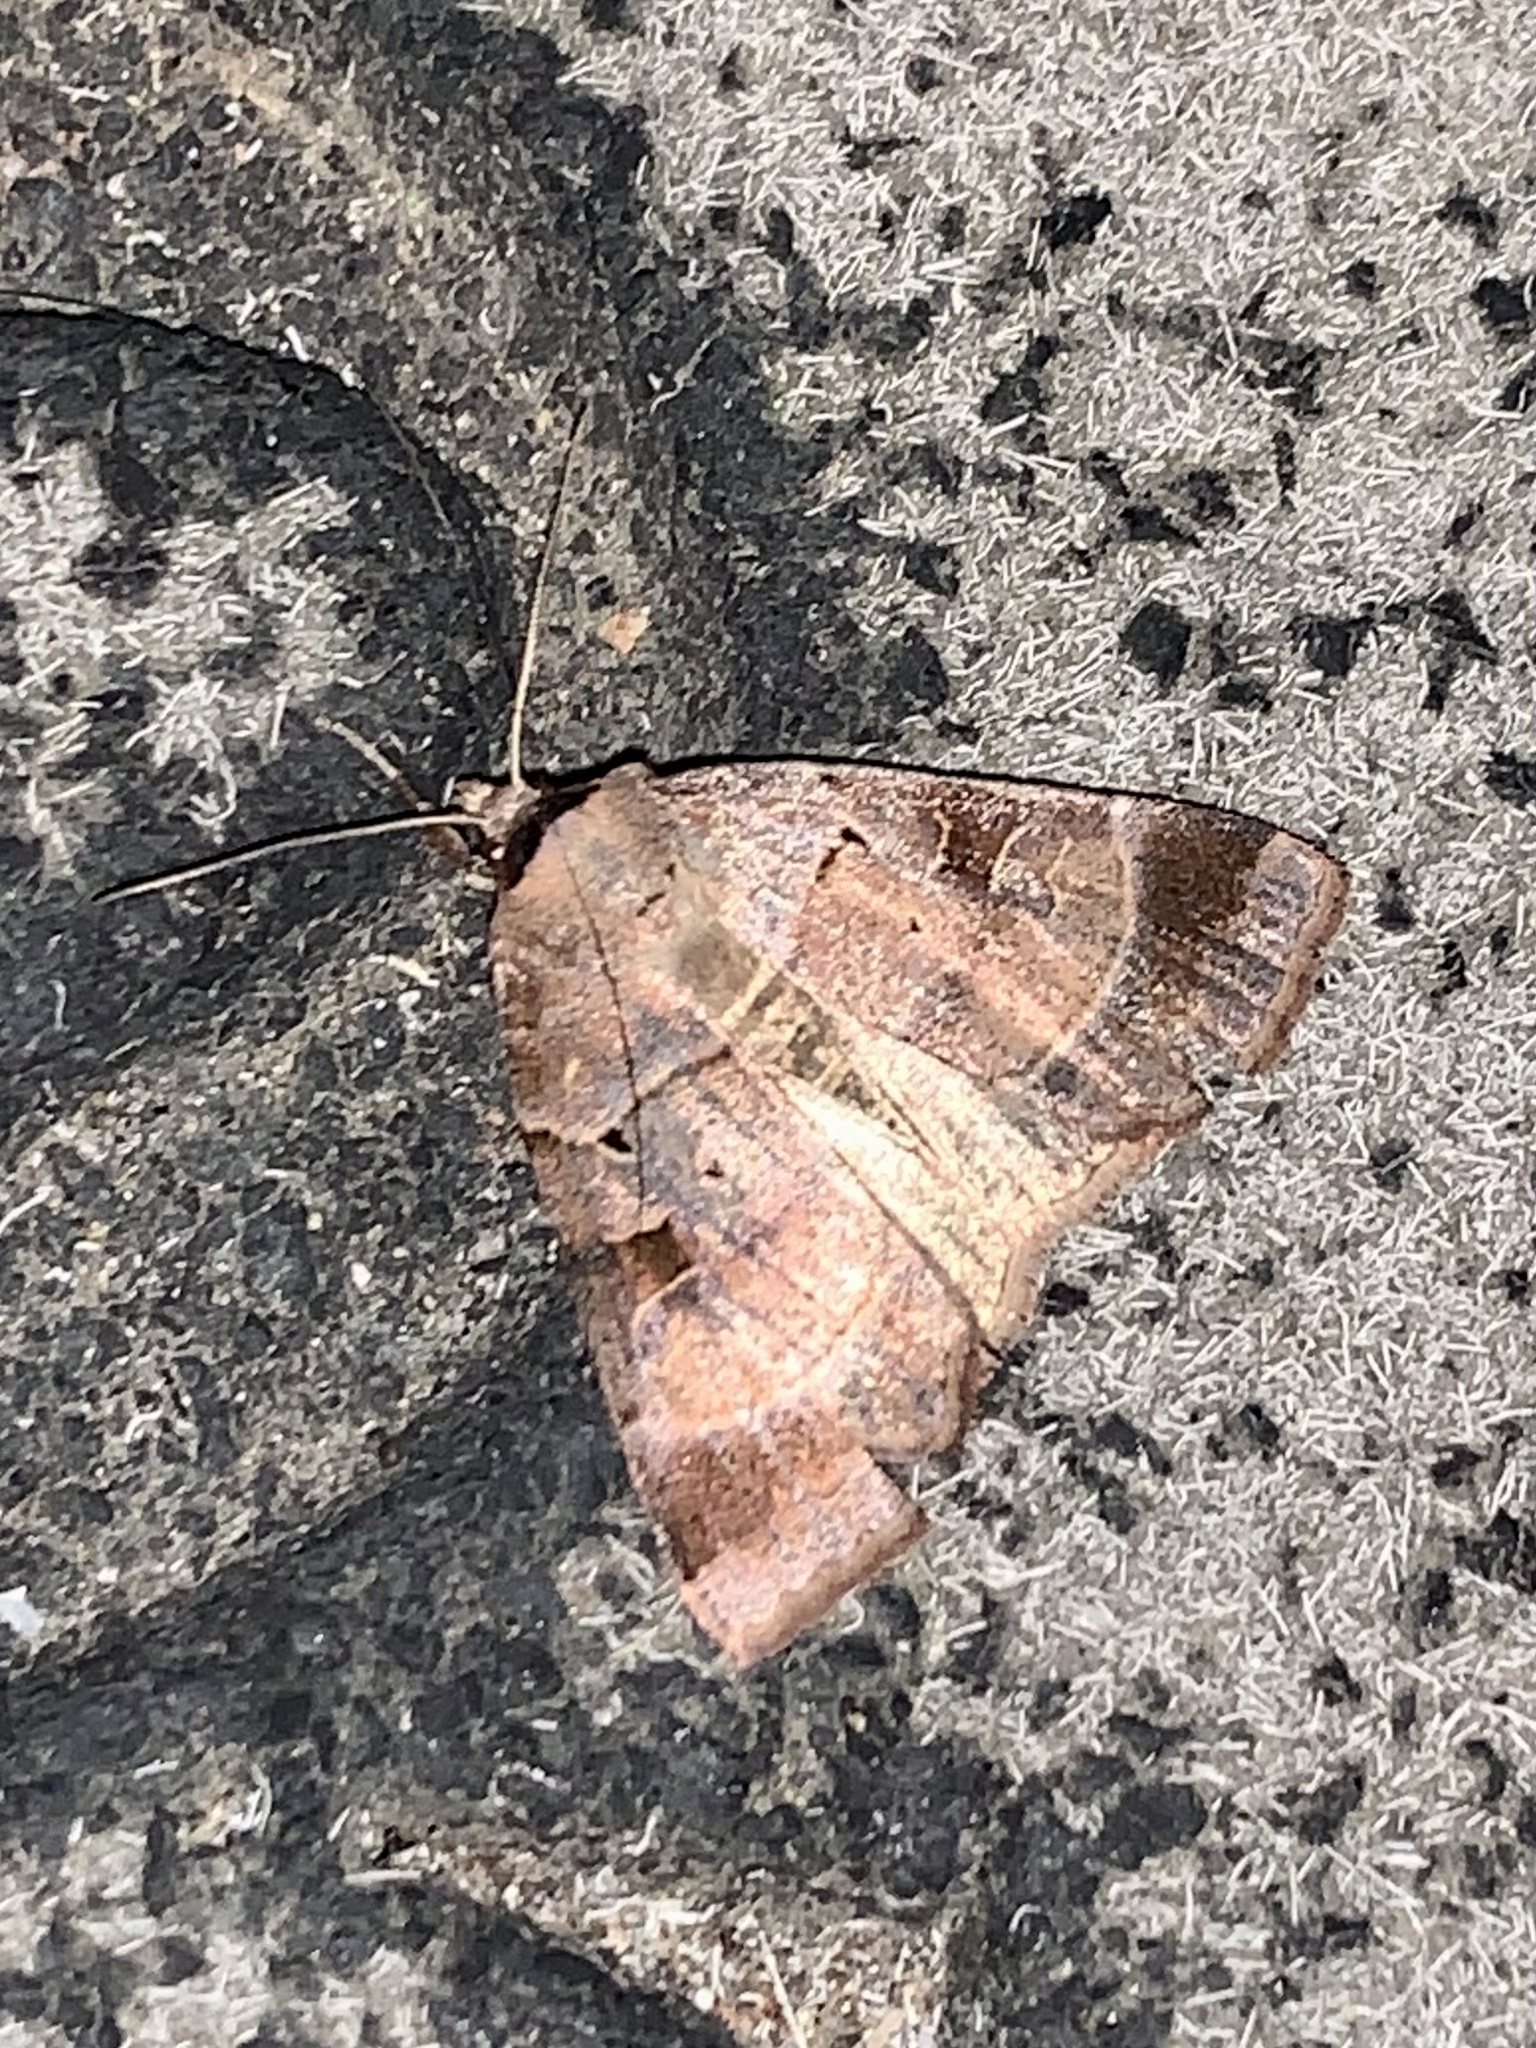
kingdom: Animalia
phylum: Arthropoda
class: Insecta
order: Lepidoptera
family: Noctuidae
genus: Agnorisma
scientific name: Agnorisma badinodis
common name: Pale-banded dart
